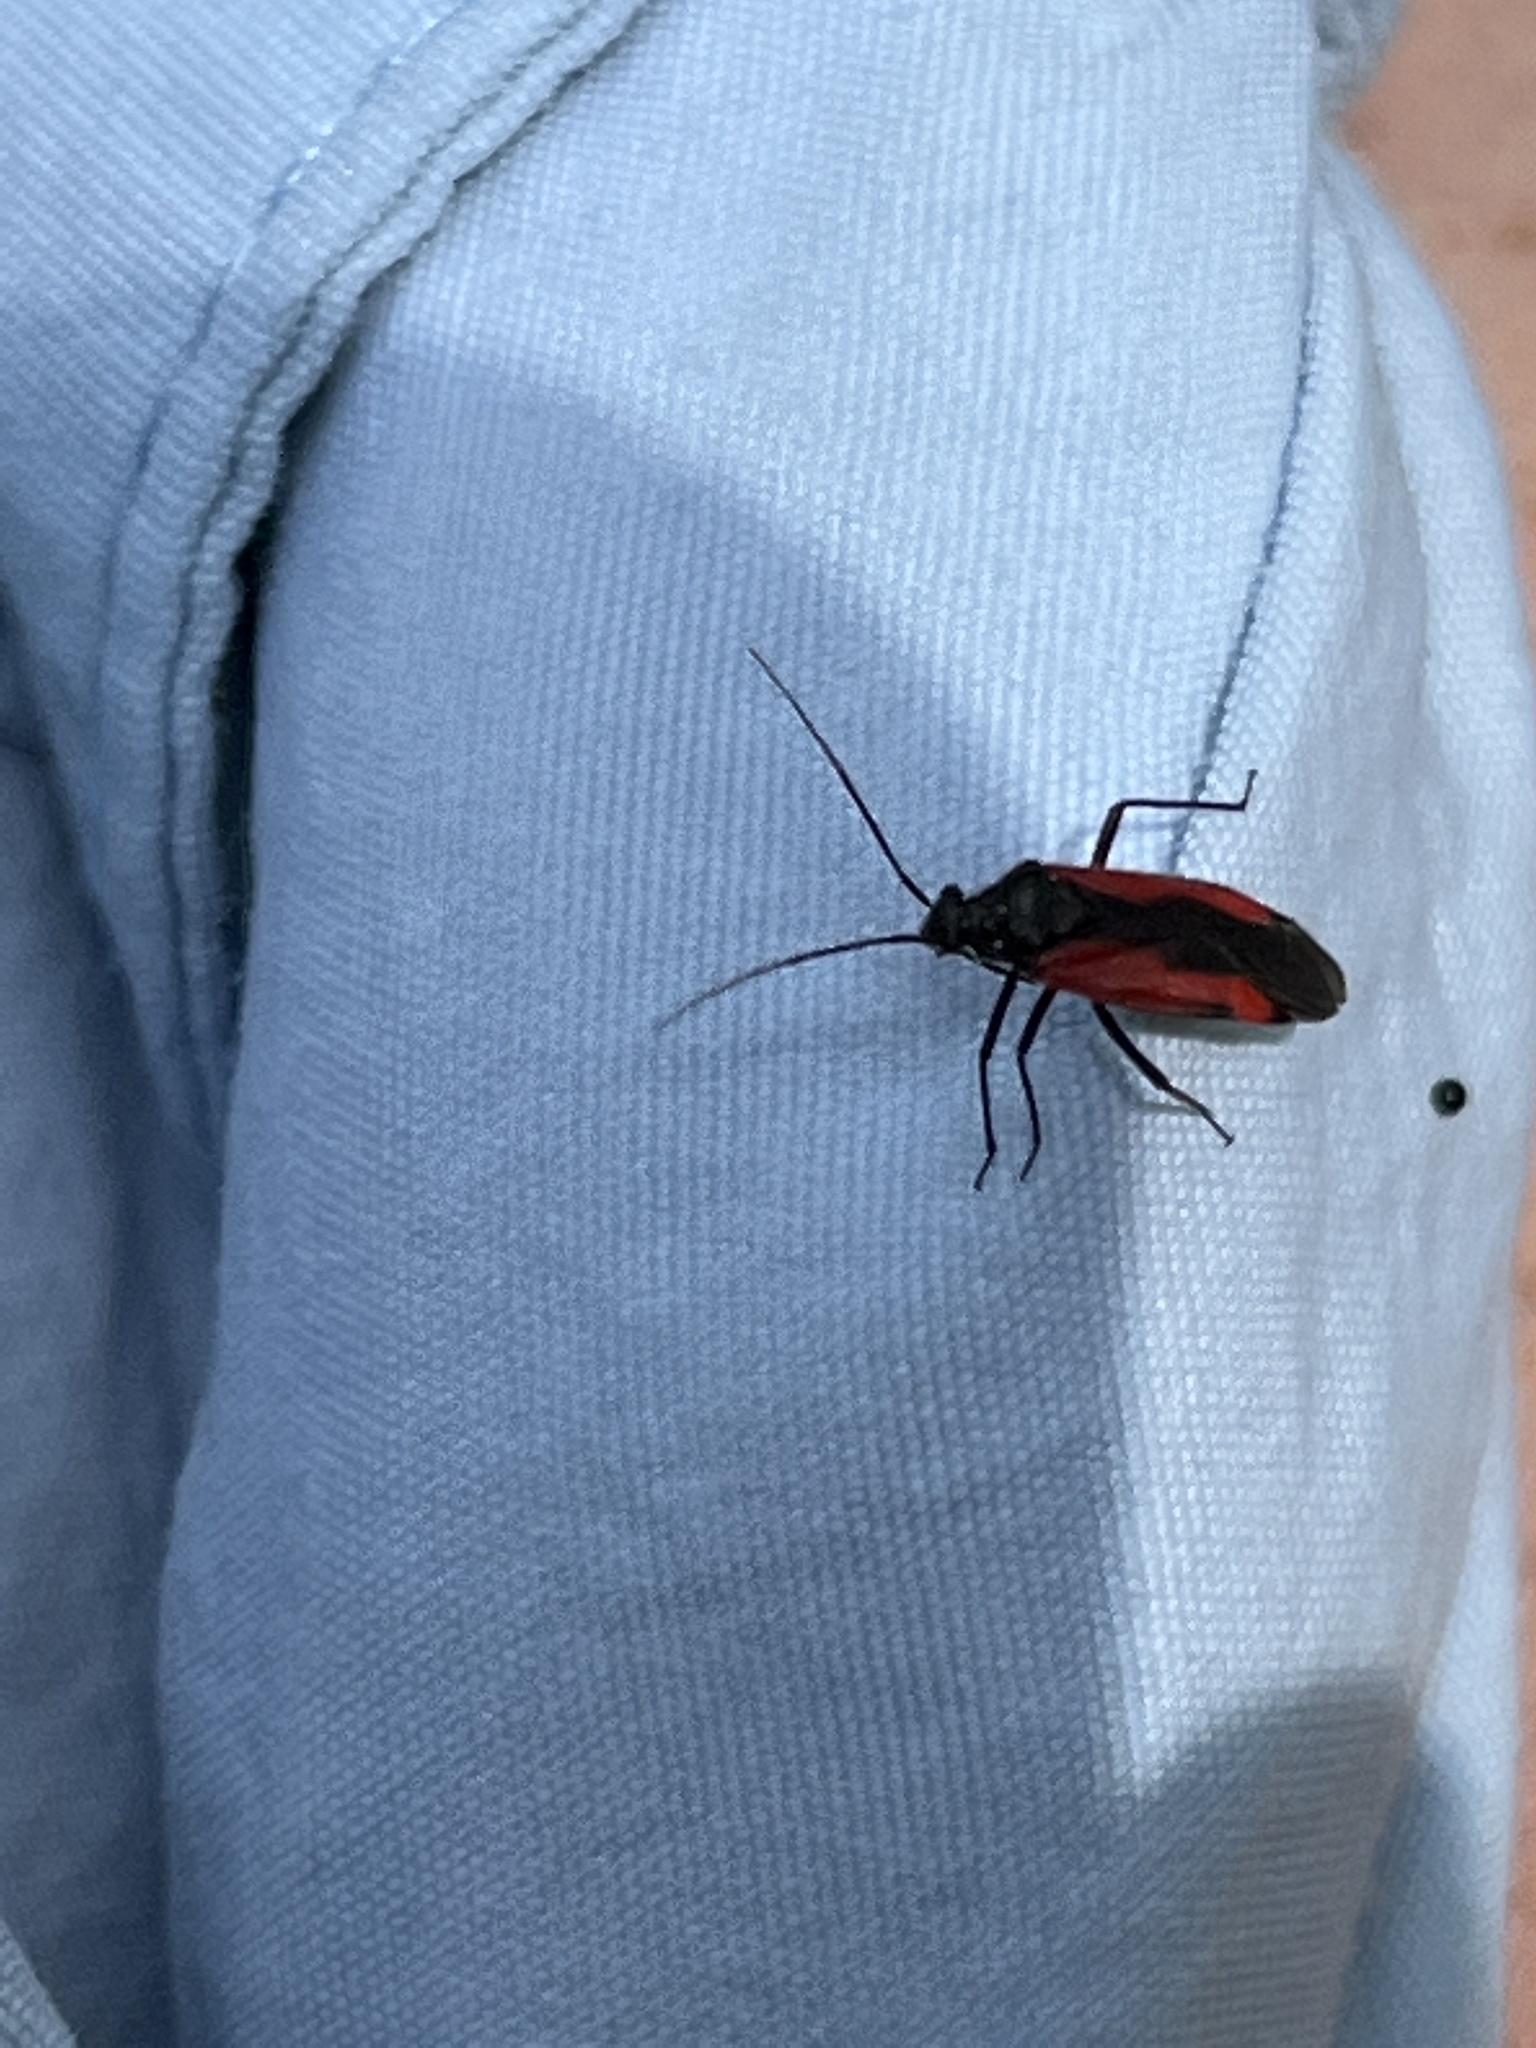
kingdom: Animalia
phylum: Arthropoda
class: Insecta
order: Hemiptera
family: Miridae
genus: Dionconotus
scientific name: Dionconotus confluens
